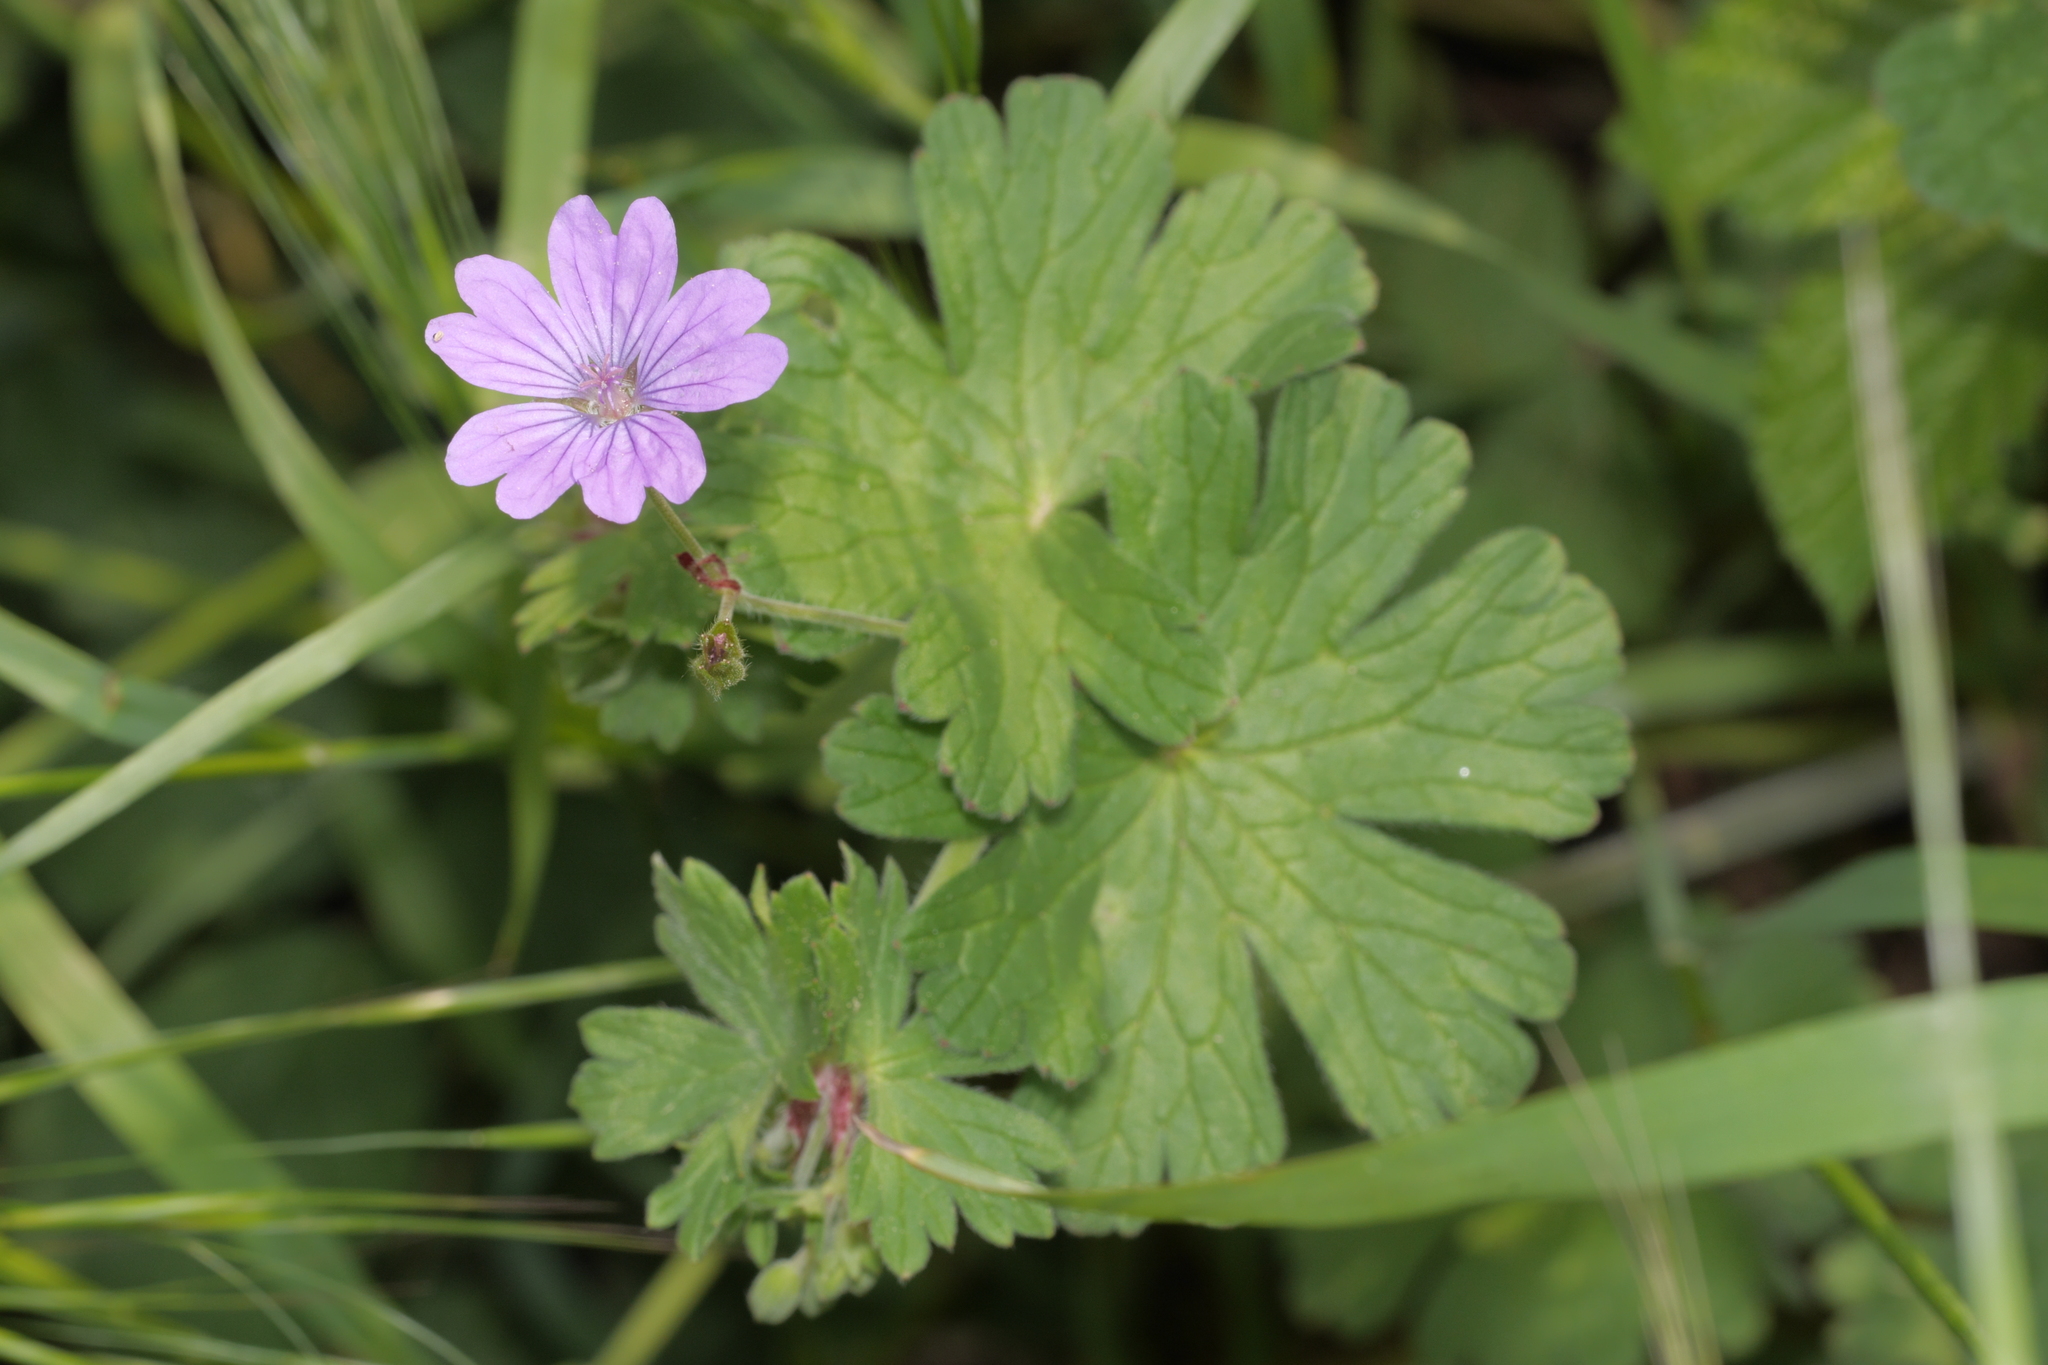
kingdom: Plantae
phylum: Tracheophyta
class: Magnoliopsida
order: Geraniales
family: Geraniaceae
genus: Geranium
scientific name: Geranium pyrenaicum
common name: Hedgerow crane's-bill
